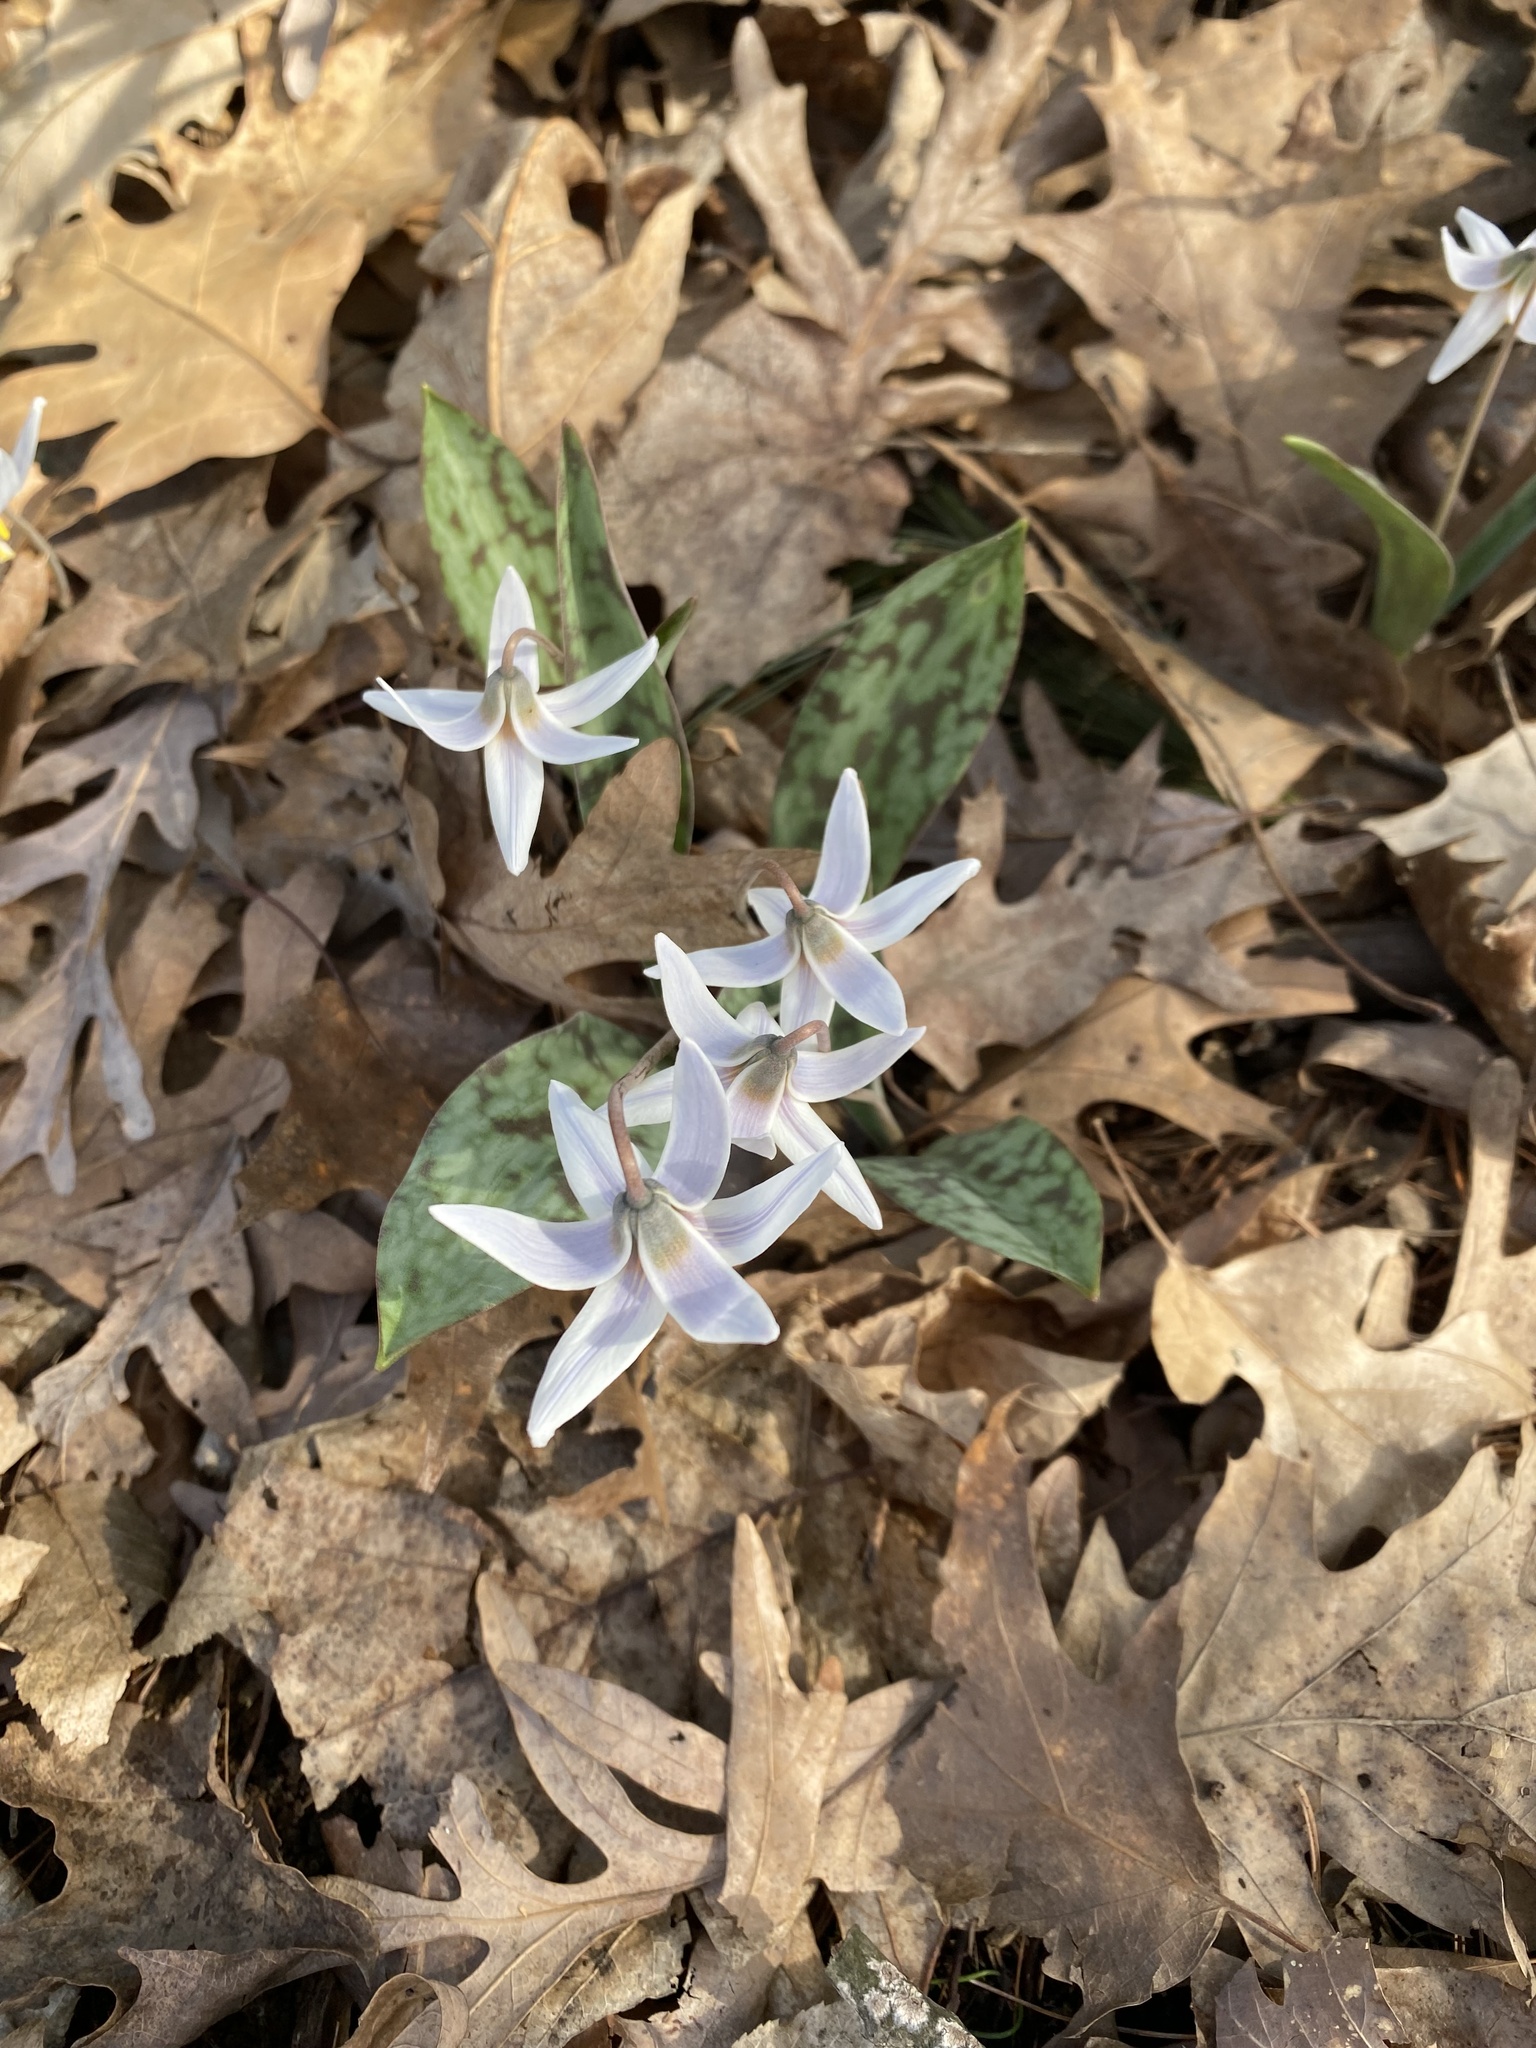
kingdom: Plantae
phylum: Tracheophyta
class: Liliopsida
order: Liliales
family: Liliaceae
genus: Erythronium
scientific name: Erythronium albidum
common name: White trout-lily
